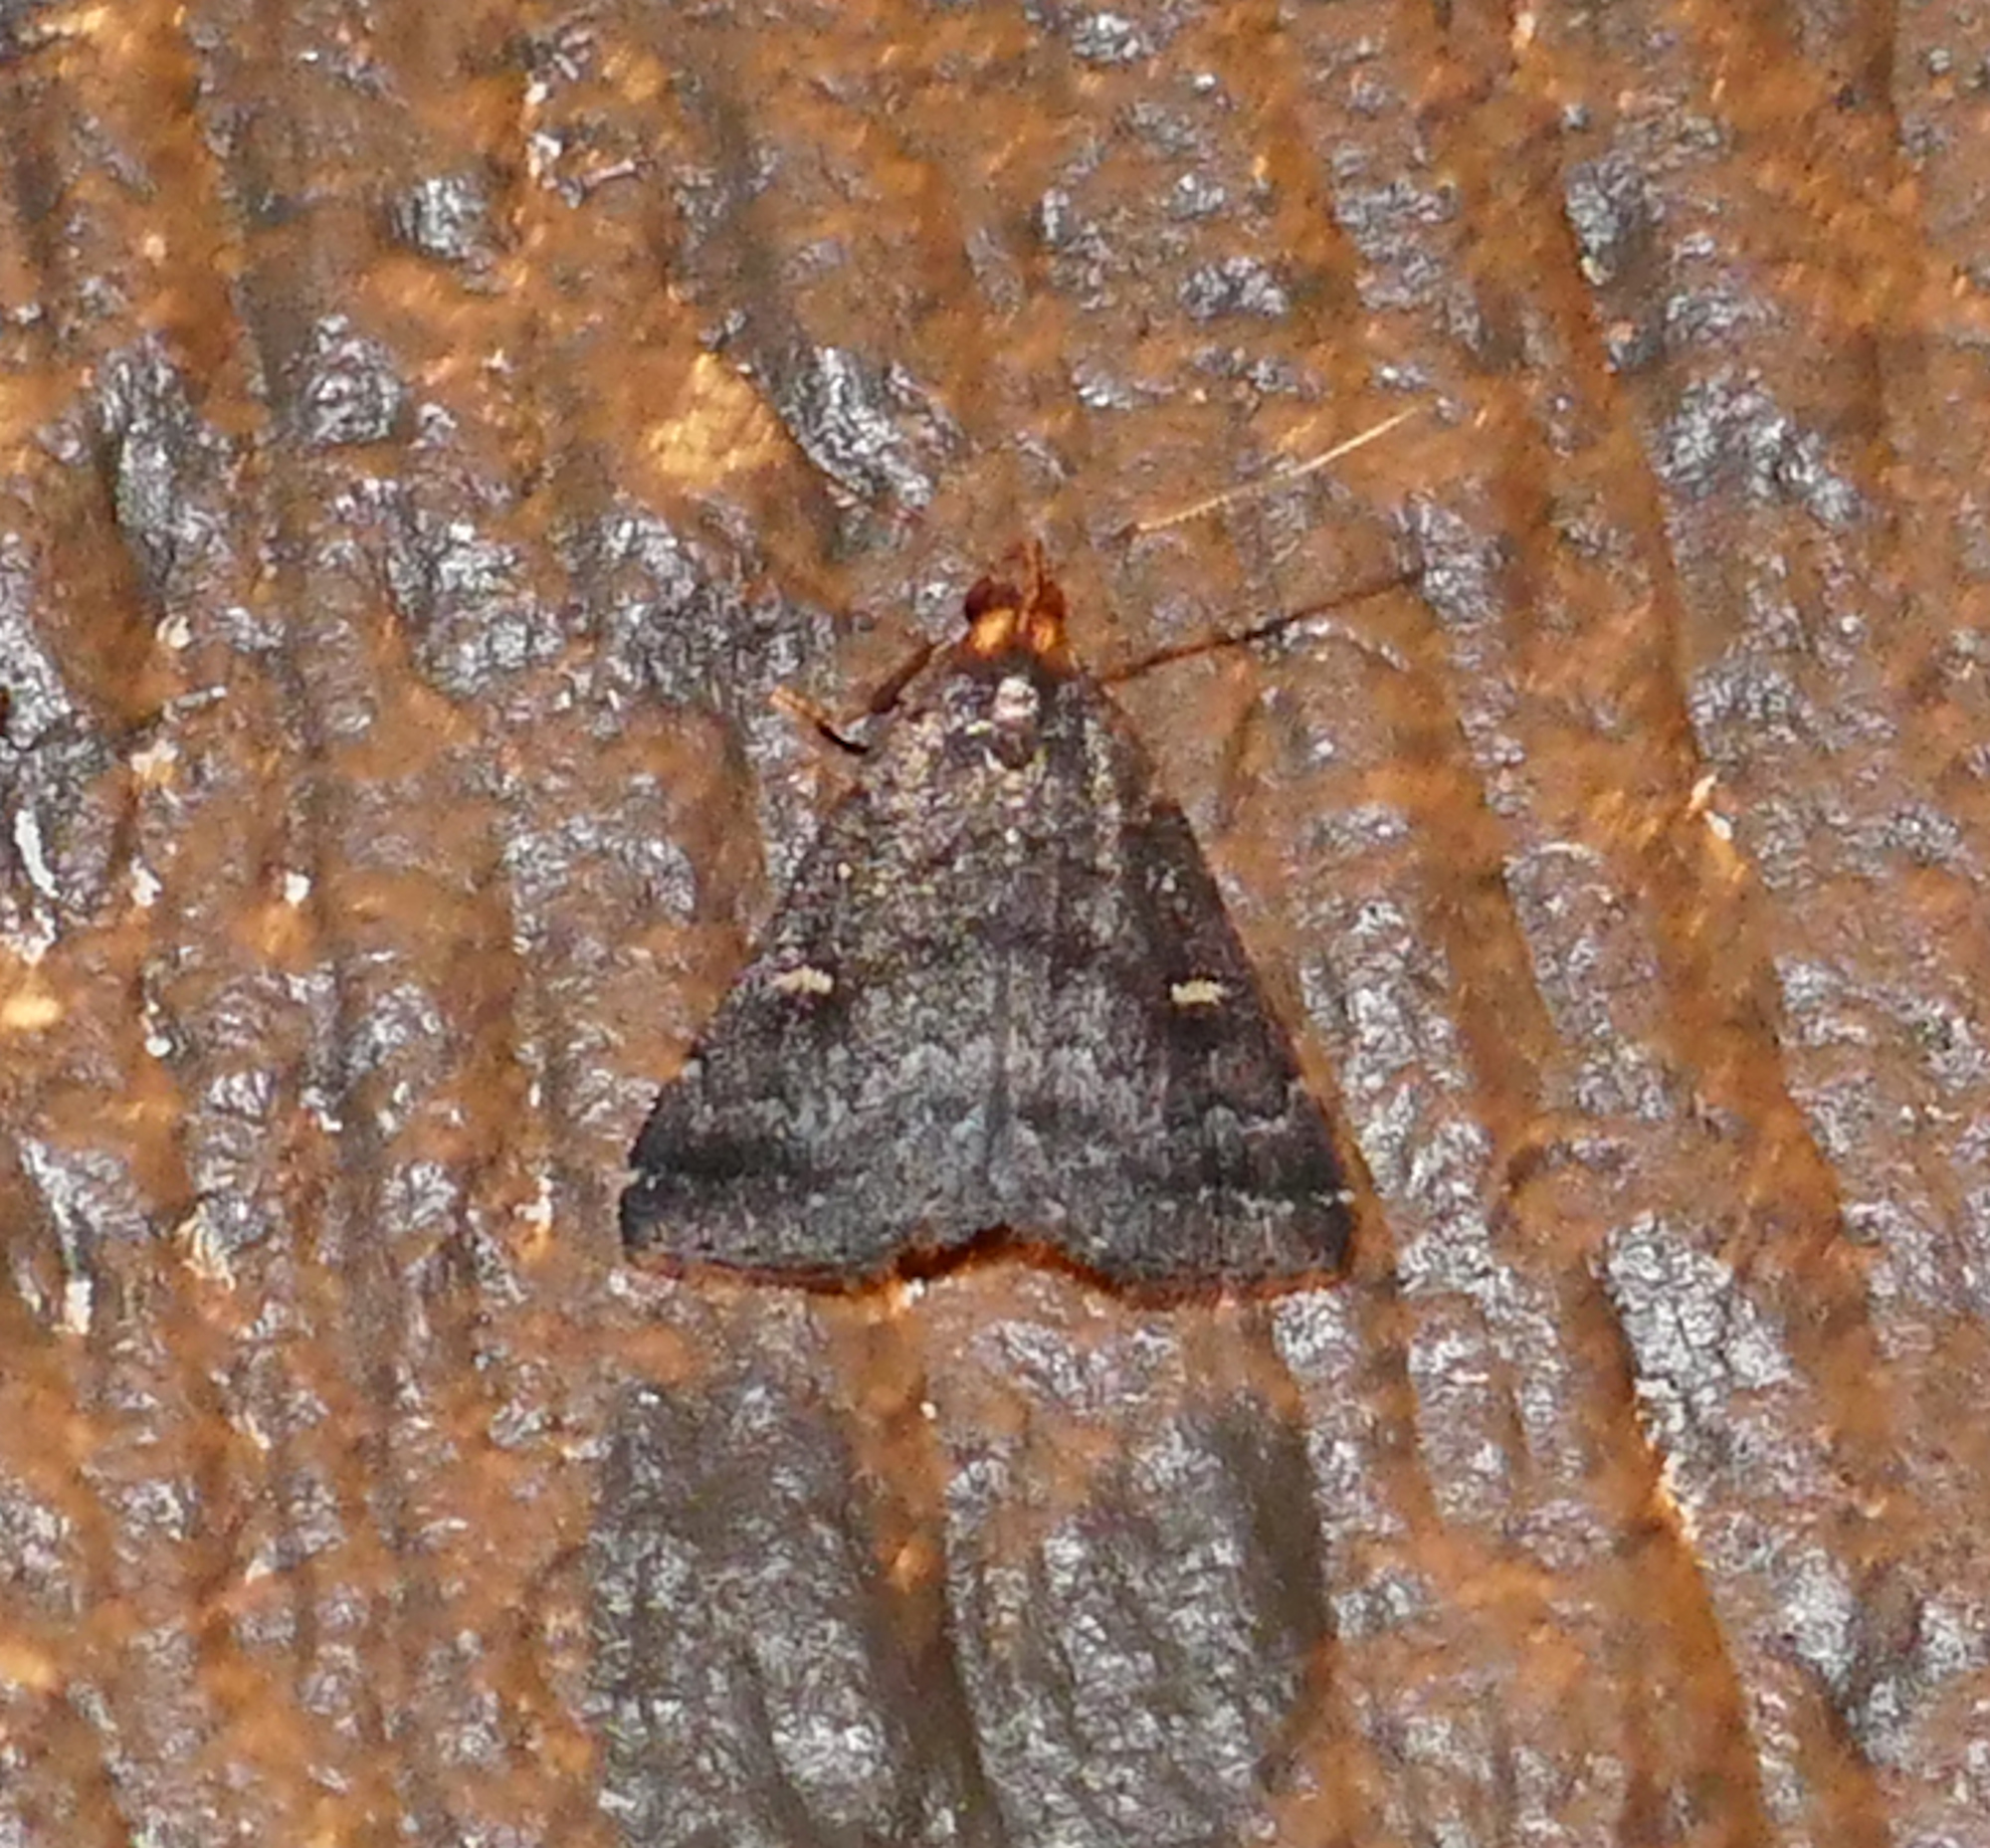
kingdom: Animalia
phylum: Arthropoda
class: Insecta
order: Lepidoptera
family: Erebidae
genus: Tetanolita
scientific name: Tetanolita mynesalis
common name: Smoky tetanolita moth
